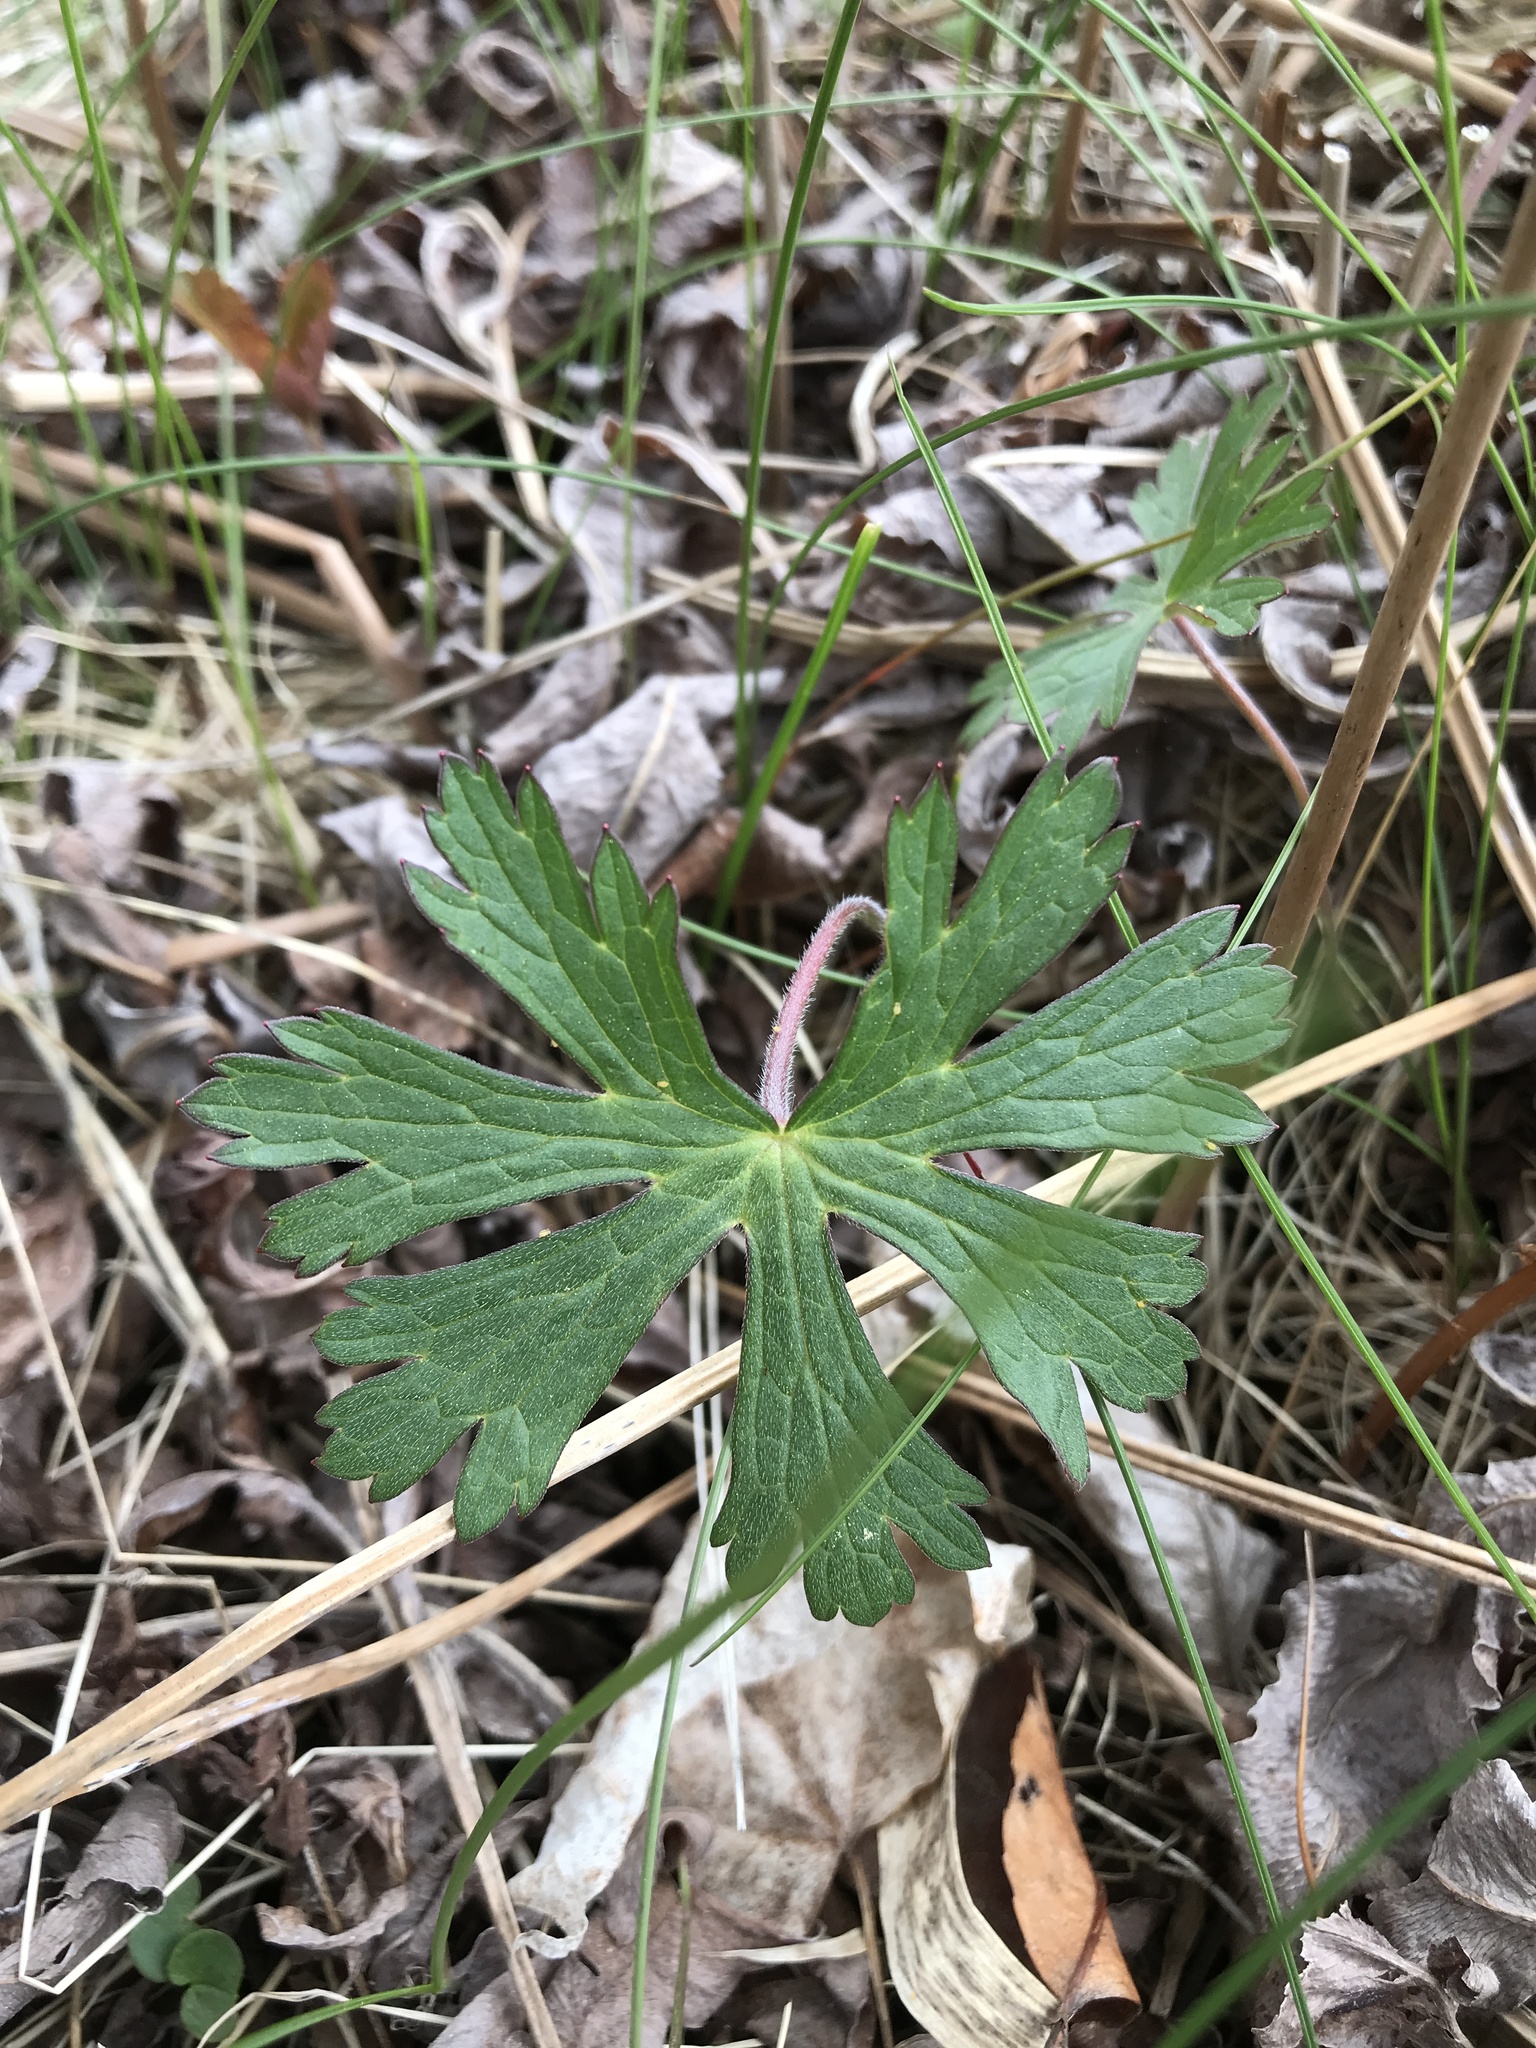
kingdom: Plantae
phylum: Tracheophyta
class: Magnoliopsida
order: Geraniales
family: Geraniaceae
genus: Geranium
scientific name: Geranium maculatum
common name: Spotted geranium
